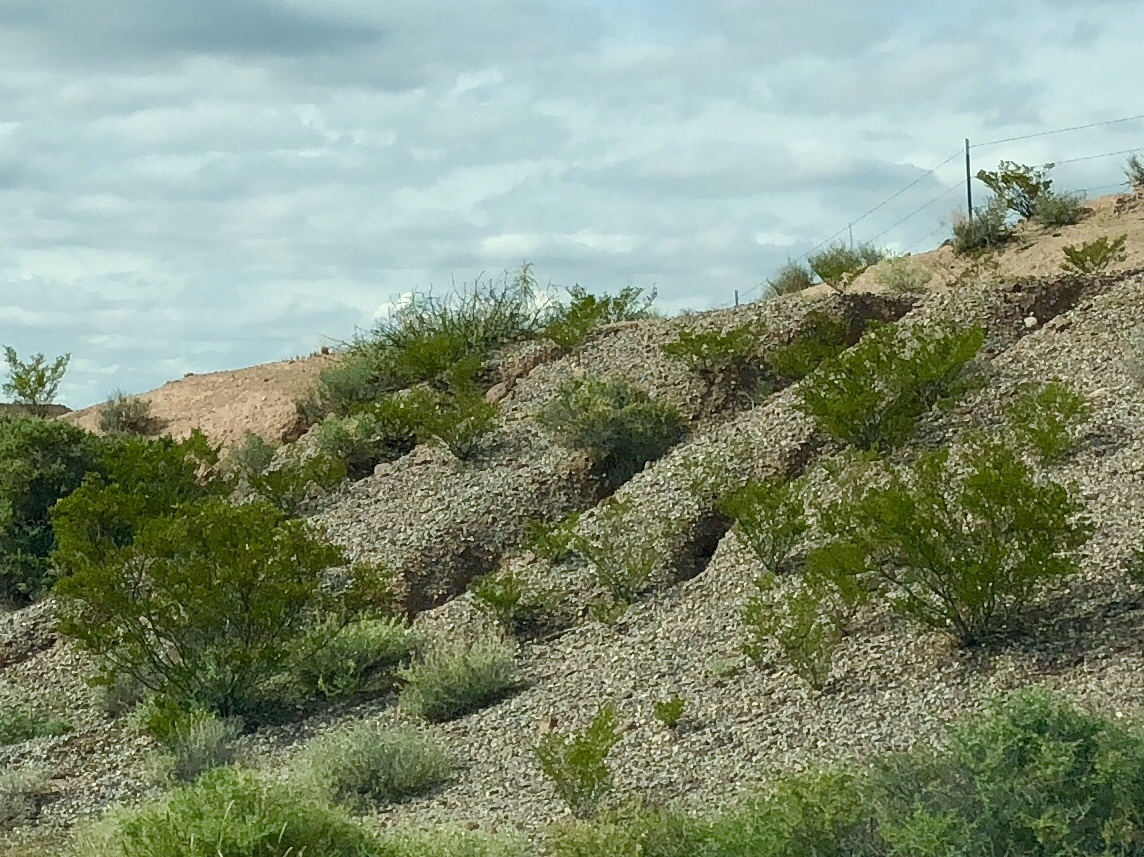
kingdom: Plantae
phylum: Tracheophyta
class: Magnoliopsida
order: Zygophyllales
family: Zygophyllaceae
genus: Larrea
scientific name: Larrea tridentata
